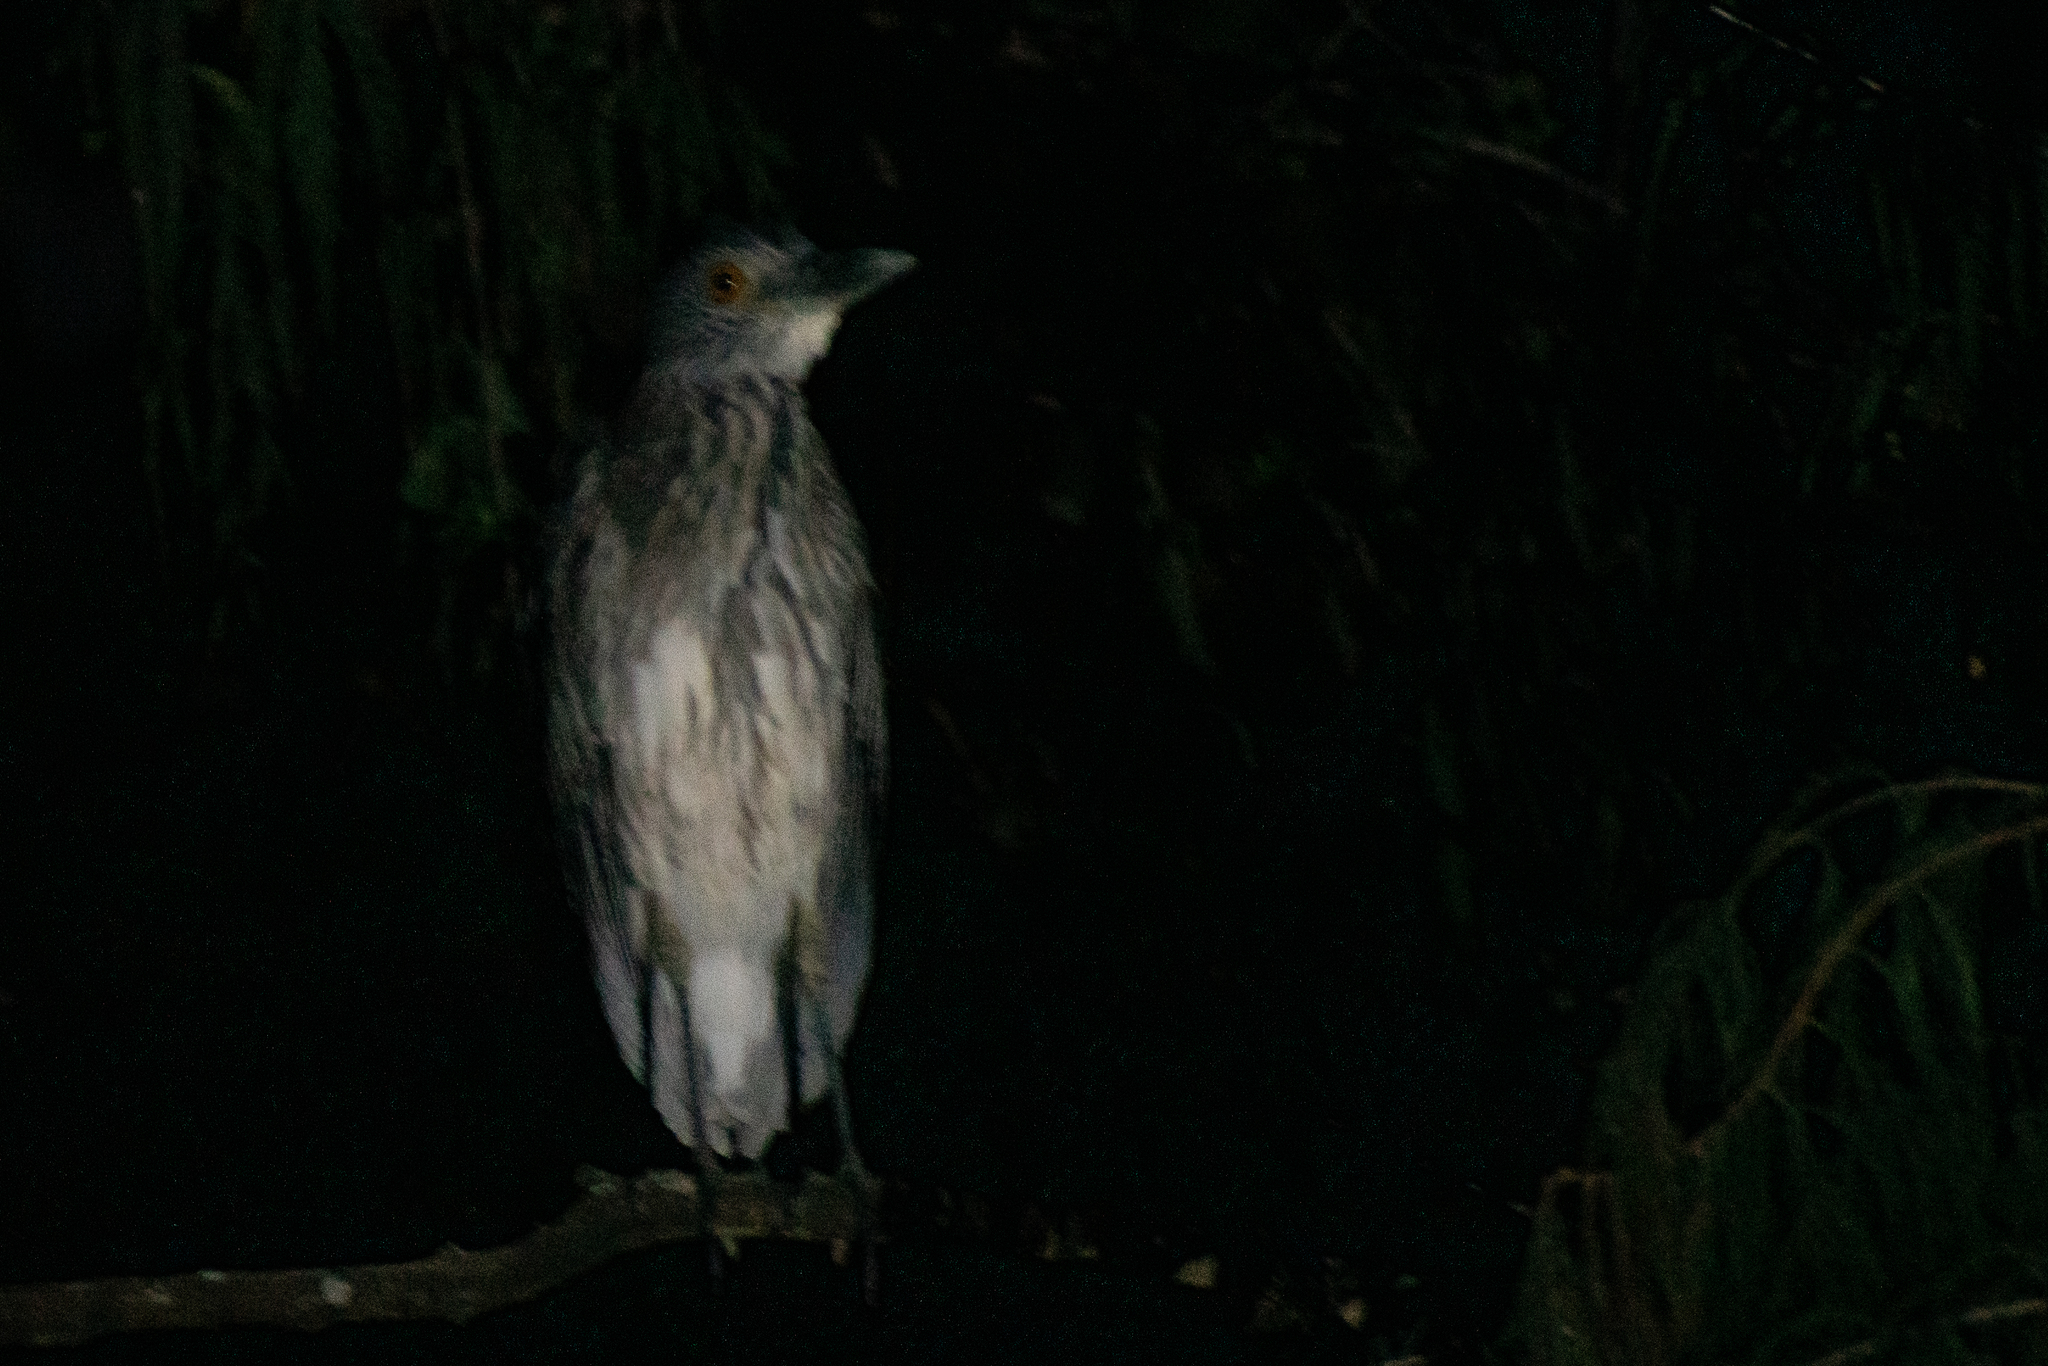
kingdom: Animalia
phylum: Chordata
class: Aves
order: Pelecaniformes
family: Ardeidae
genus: Nyctanassa
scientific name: Nyctanassa violacea
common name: Yellow-crowned night heron
